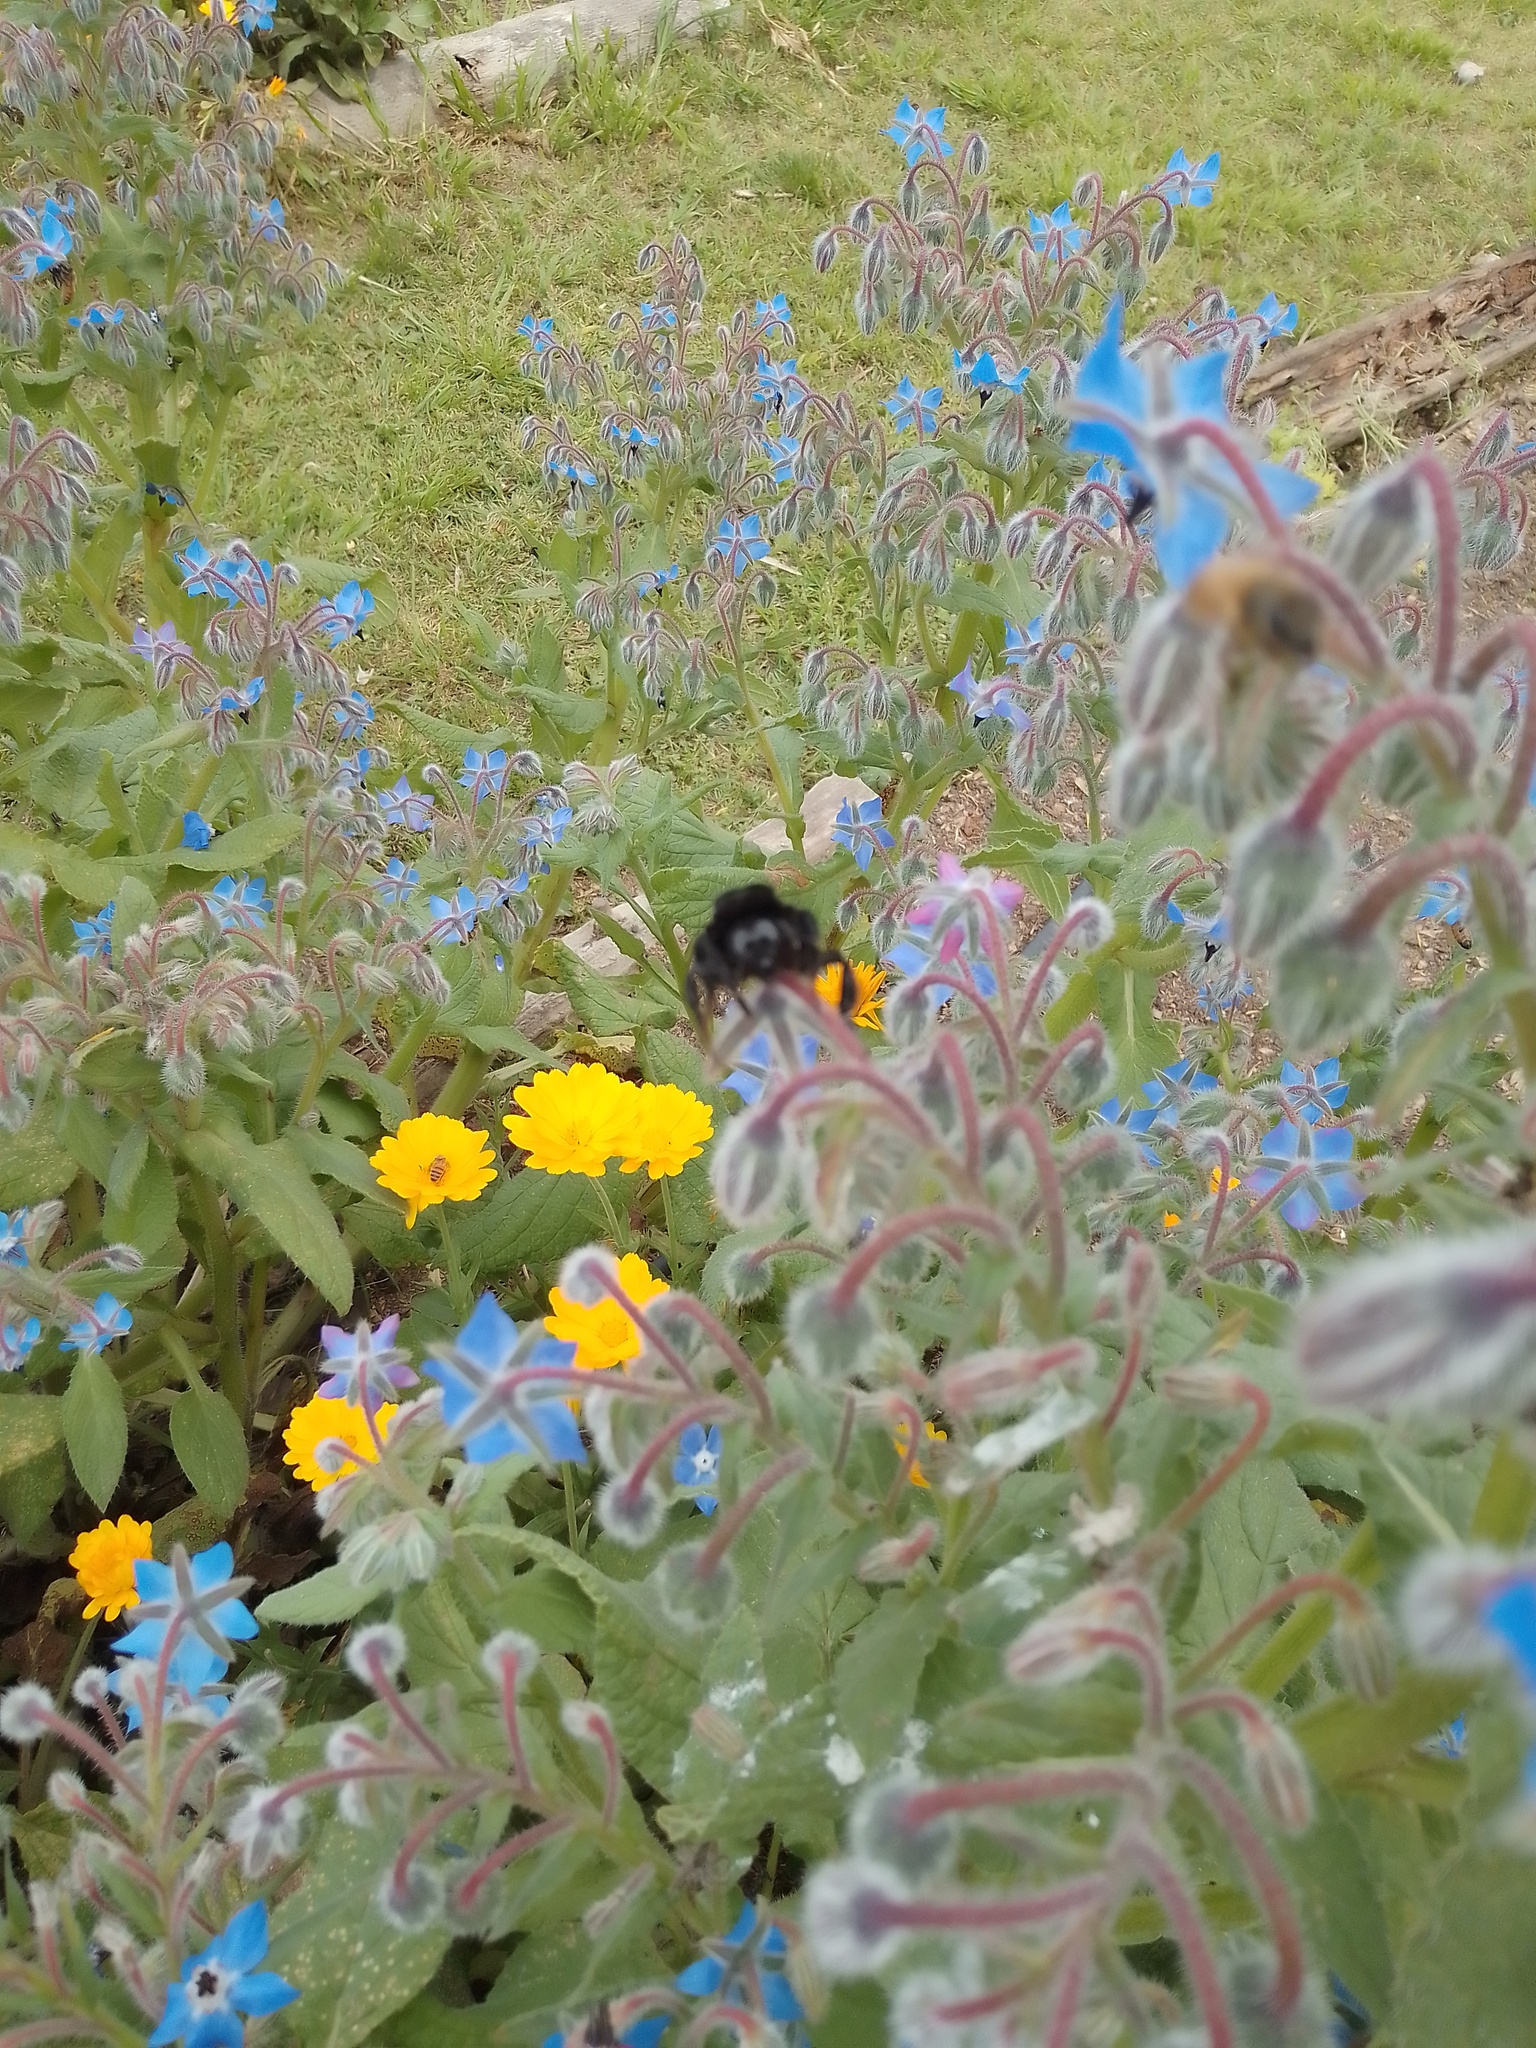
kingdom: Plantae
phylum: Tracheophyta
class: Magnoliopsida
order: Boraginales
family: Boraginaceae
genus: Borago
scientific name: Borago officinalis
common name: Borage
